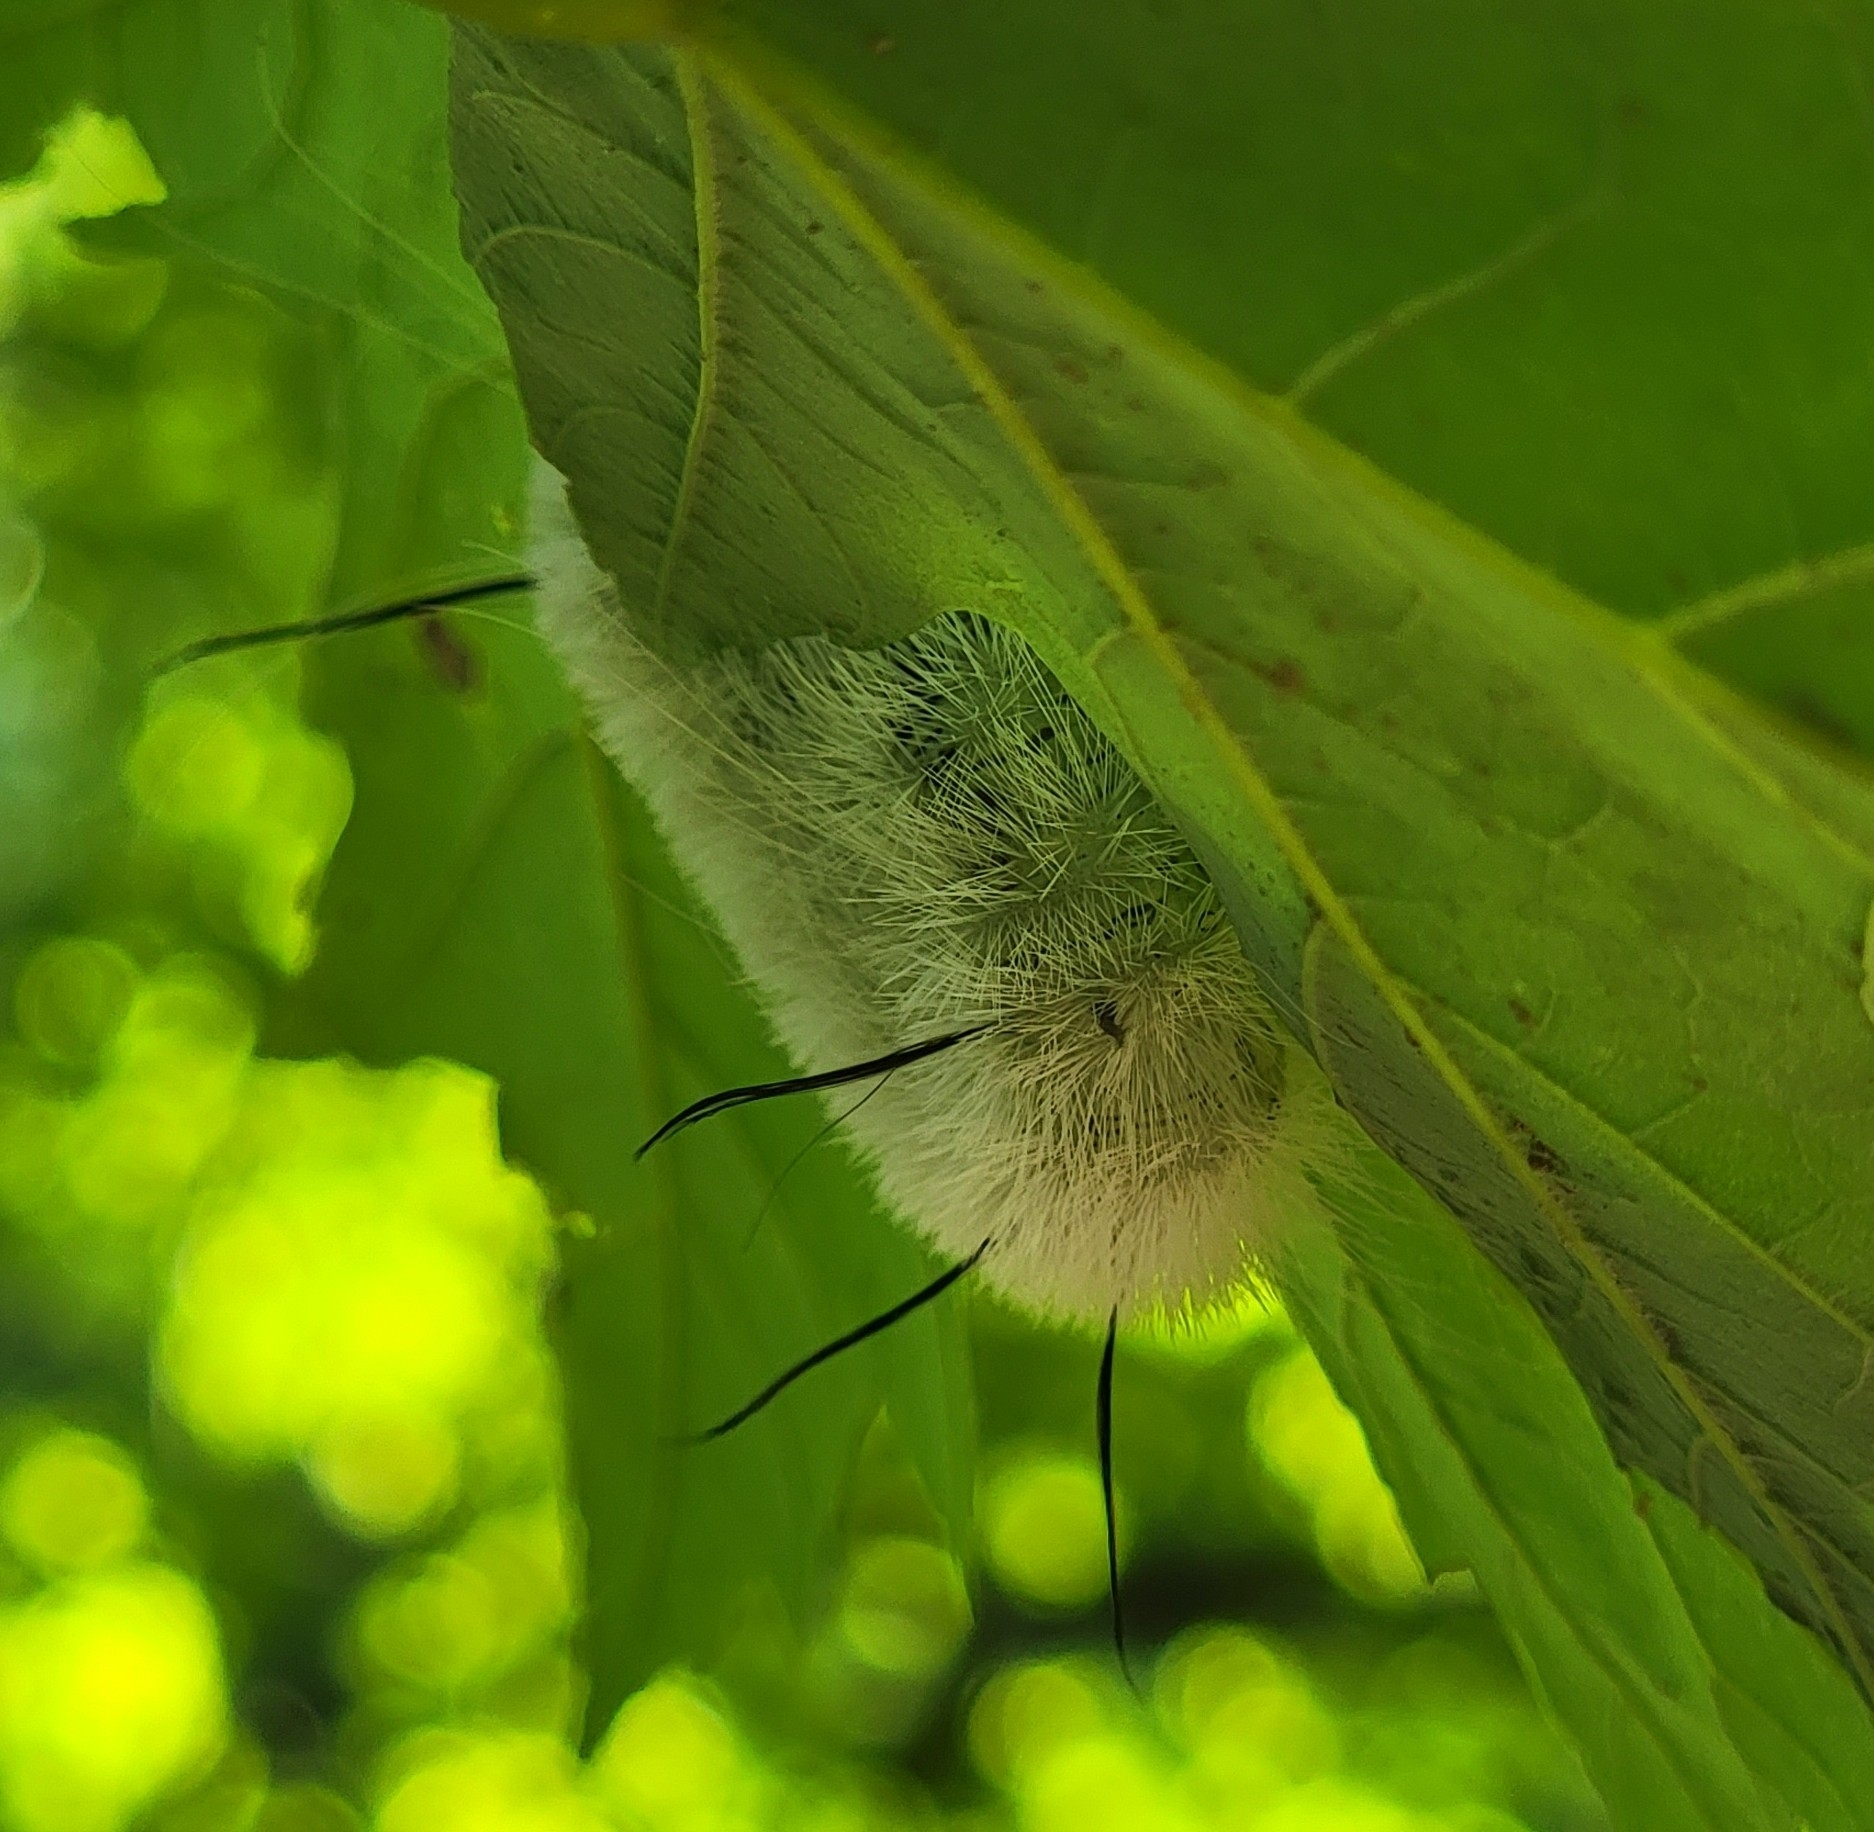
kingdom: Animalia
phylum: Arthropoda
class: Insecta
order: Lepidoptera
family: Noctuidae
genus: Acronicta
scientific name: Acronicta americana
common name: American dagger
